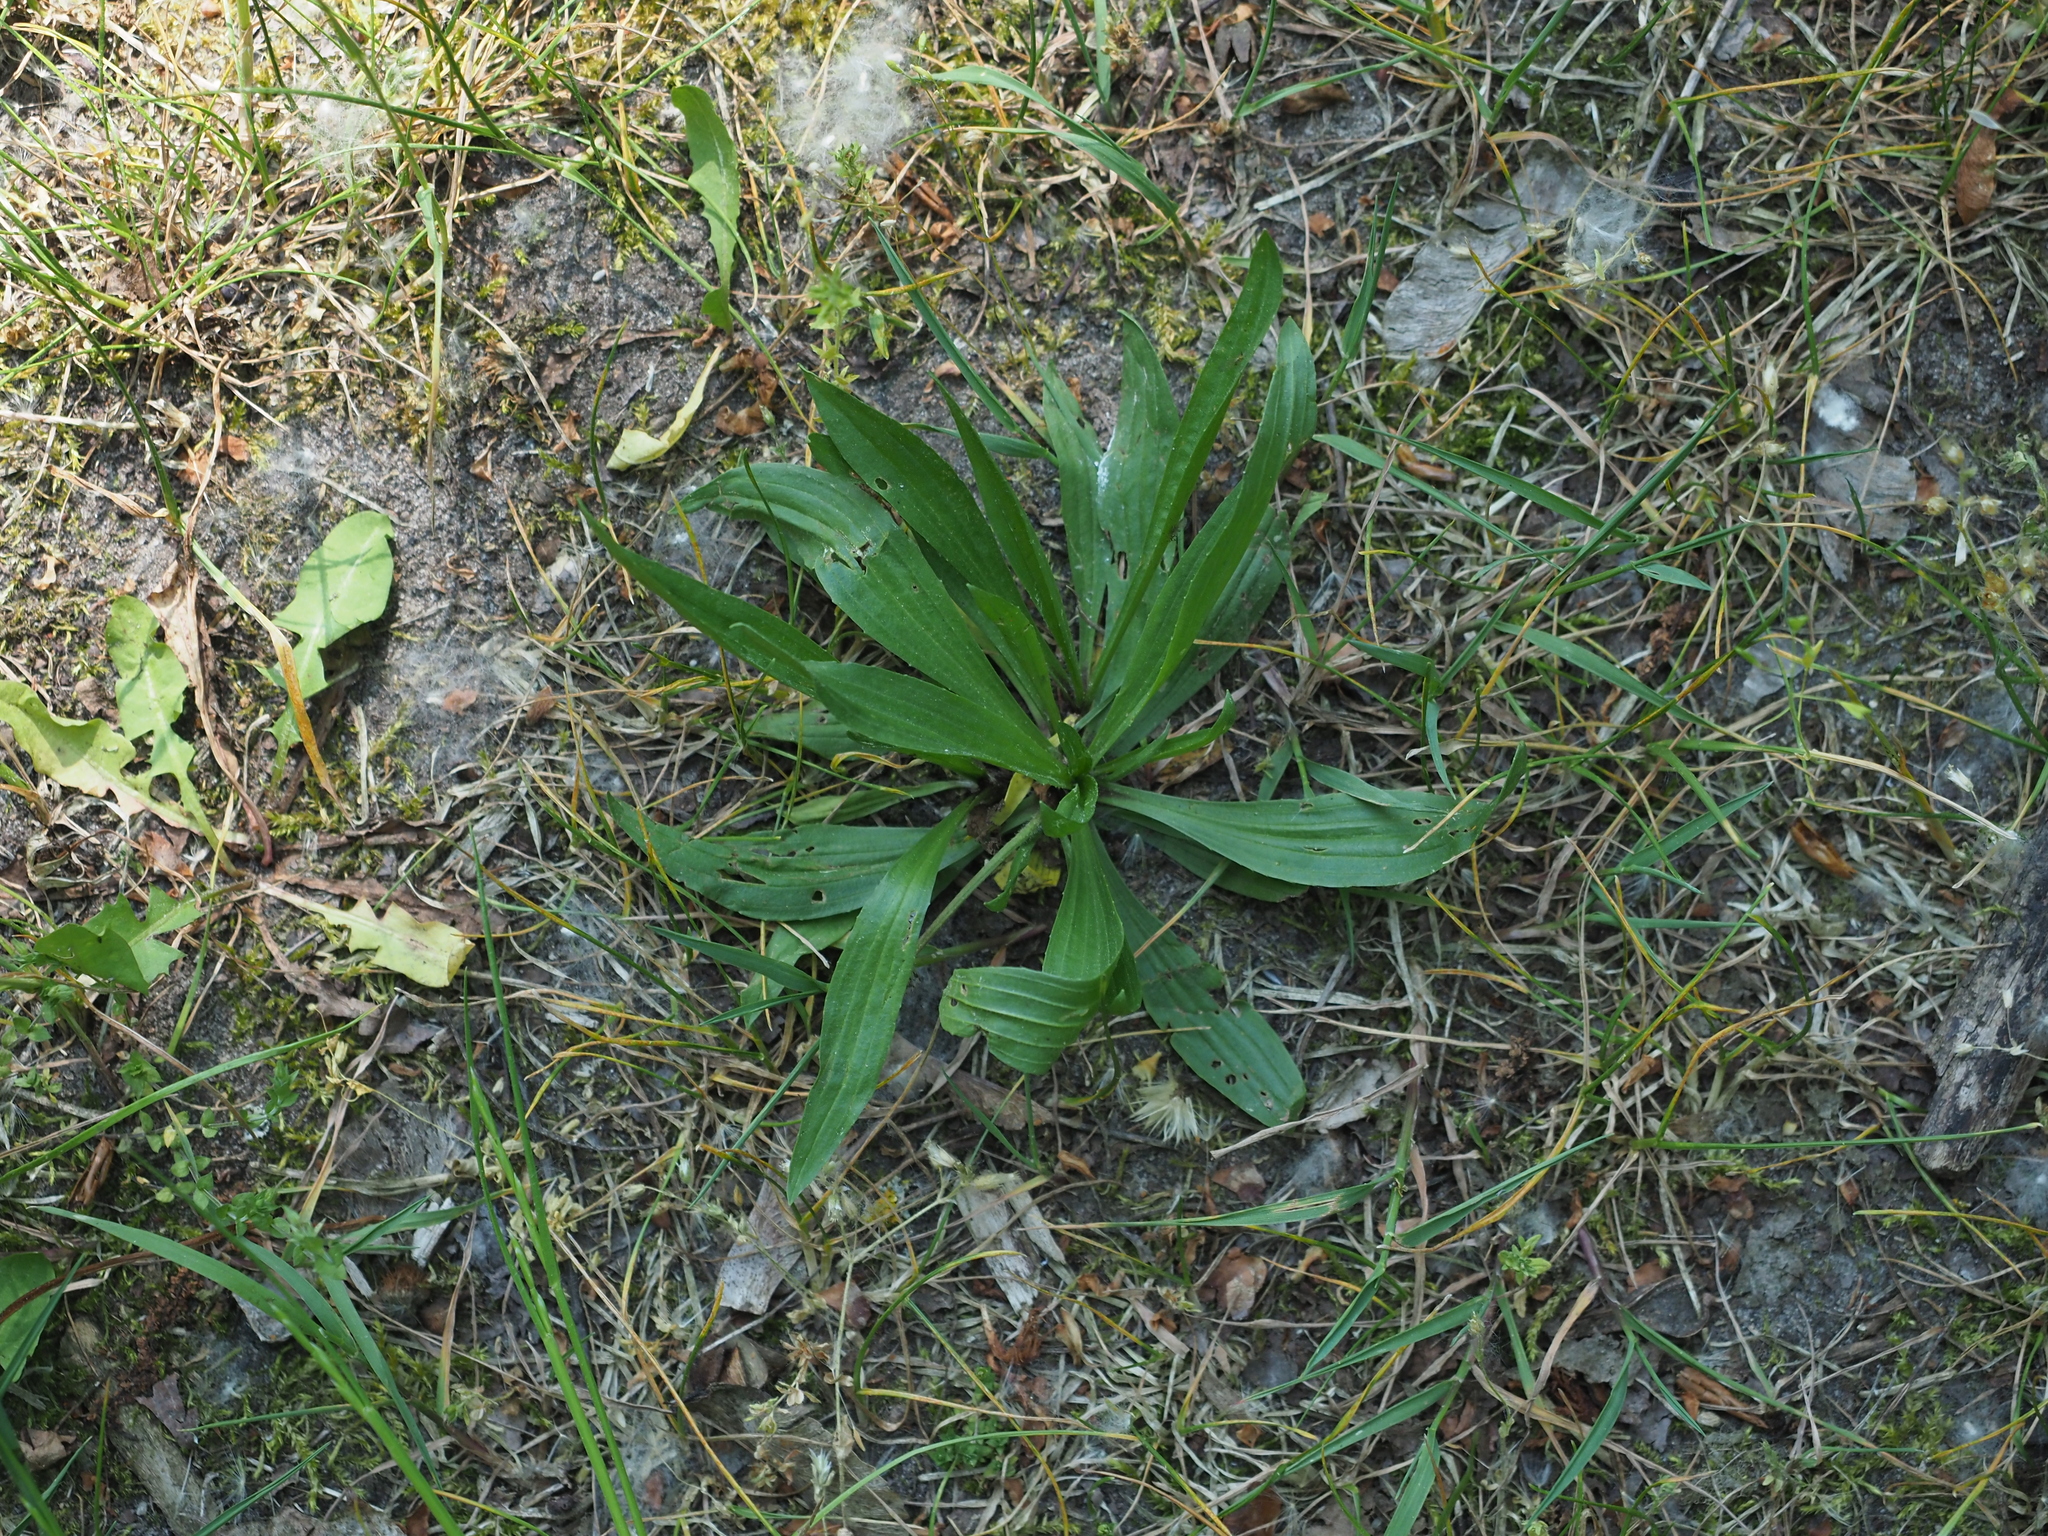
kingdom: Plantae
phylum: Tracheophyta
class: Magnoliopsida
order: Lamiales
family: Plantaginaceae
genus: Plantago
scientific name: Plantago lanceolata
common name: Ribwort plantain
